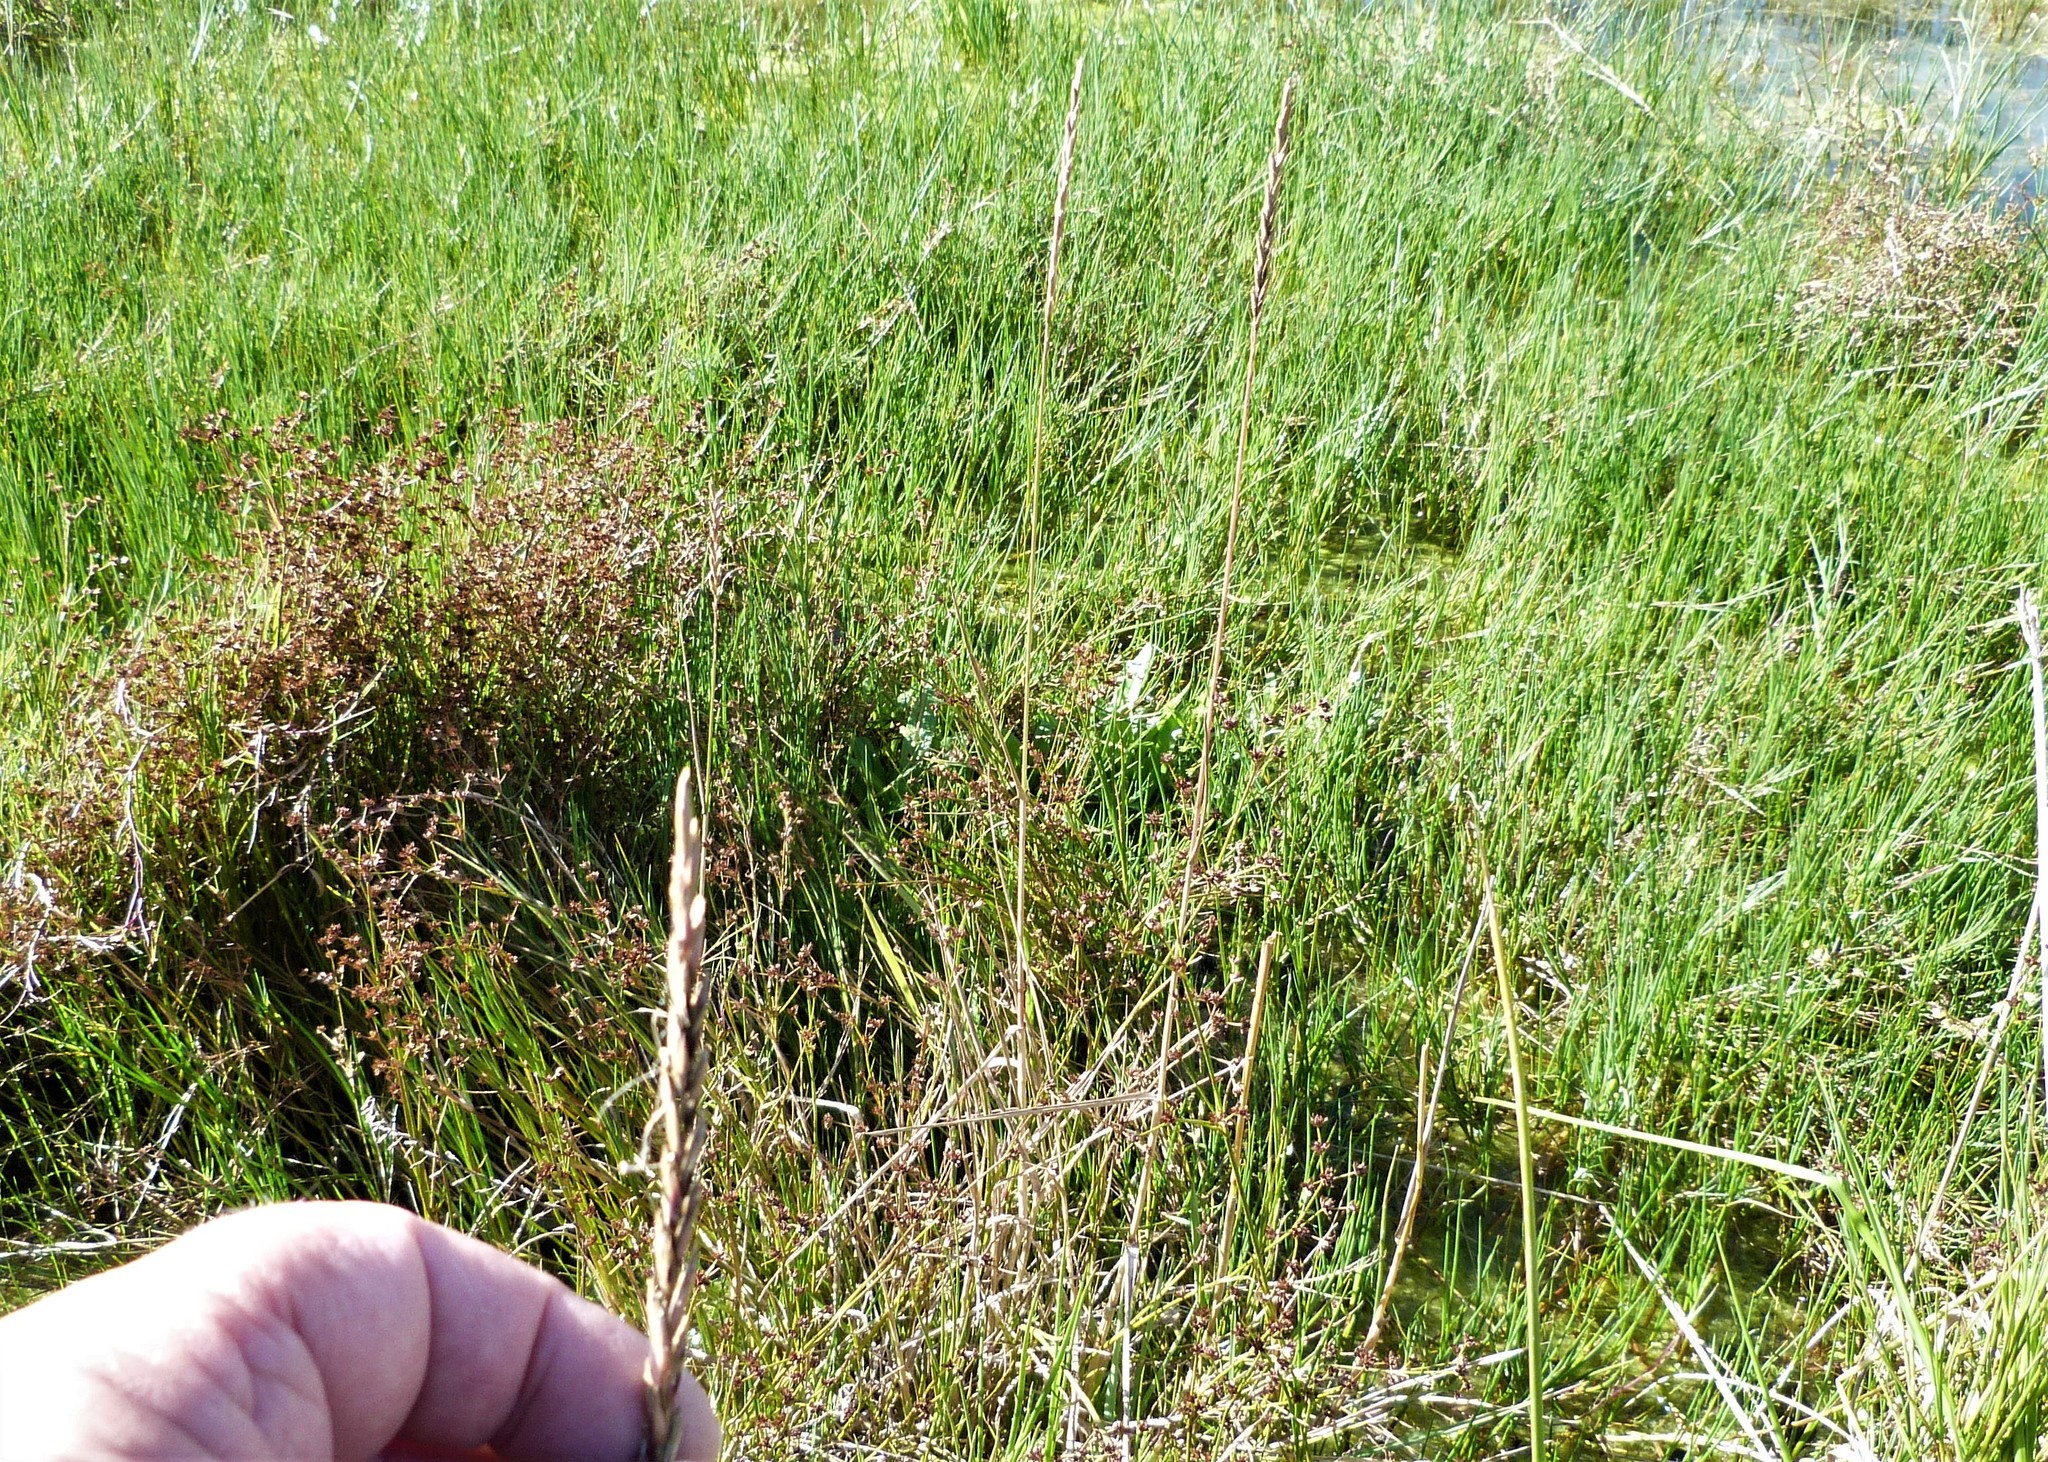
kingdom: Plantae
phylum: Tracheophyta
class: Liliopsida
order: Poales
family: Poaceae
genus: Elymus
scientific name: Elymus repens
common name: Quackgrass
